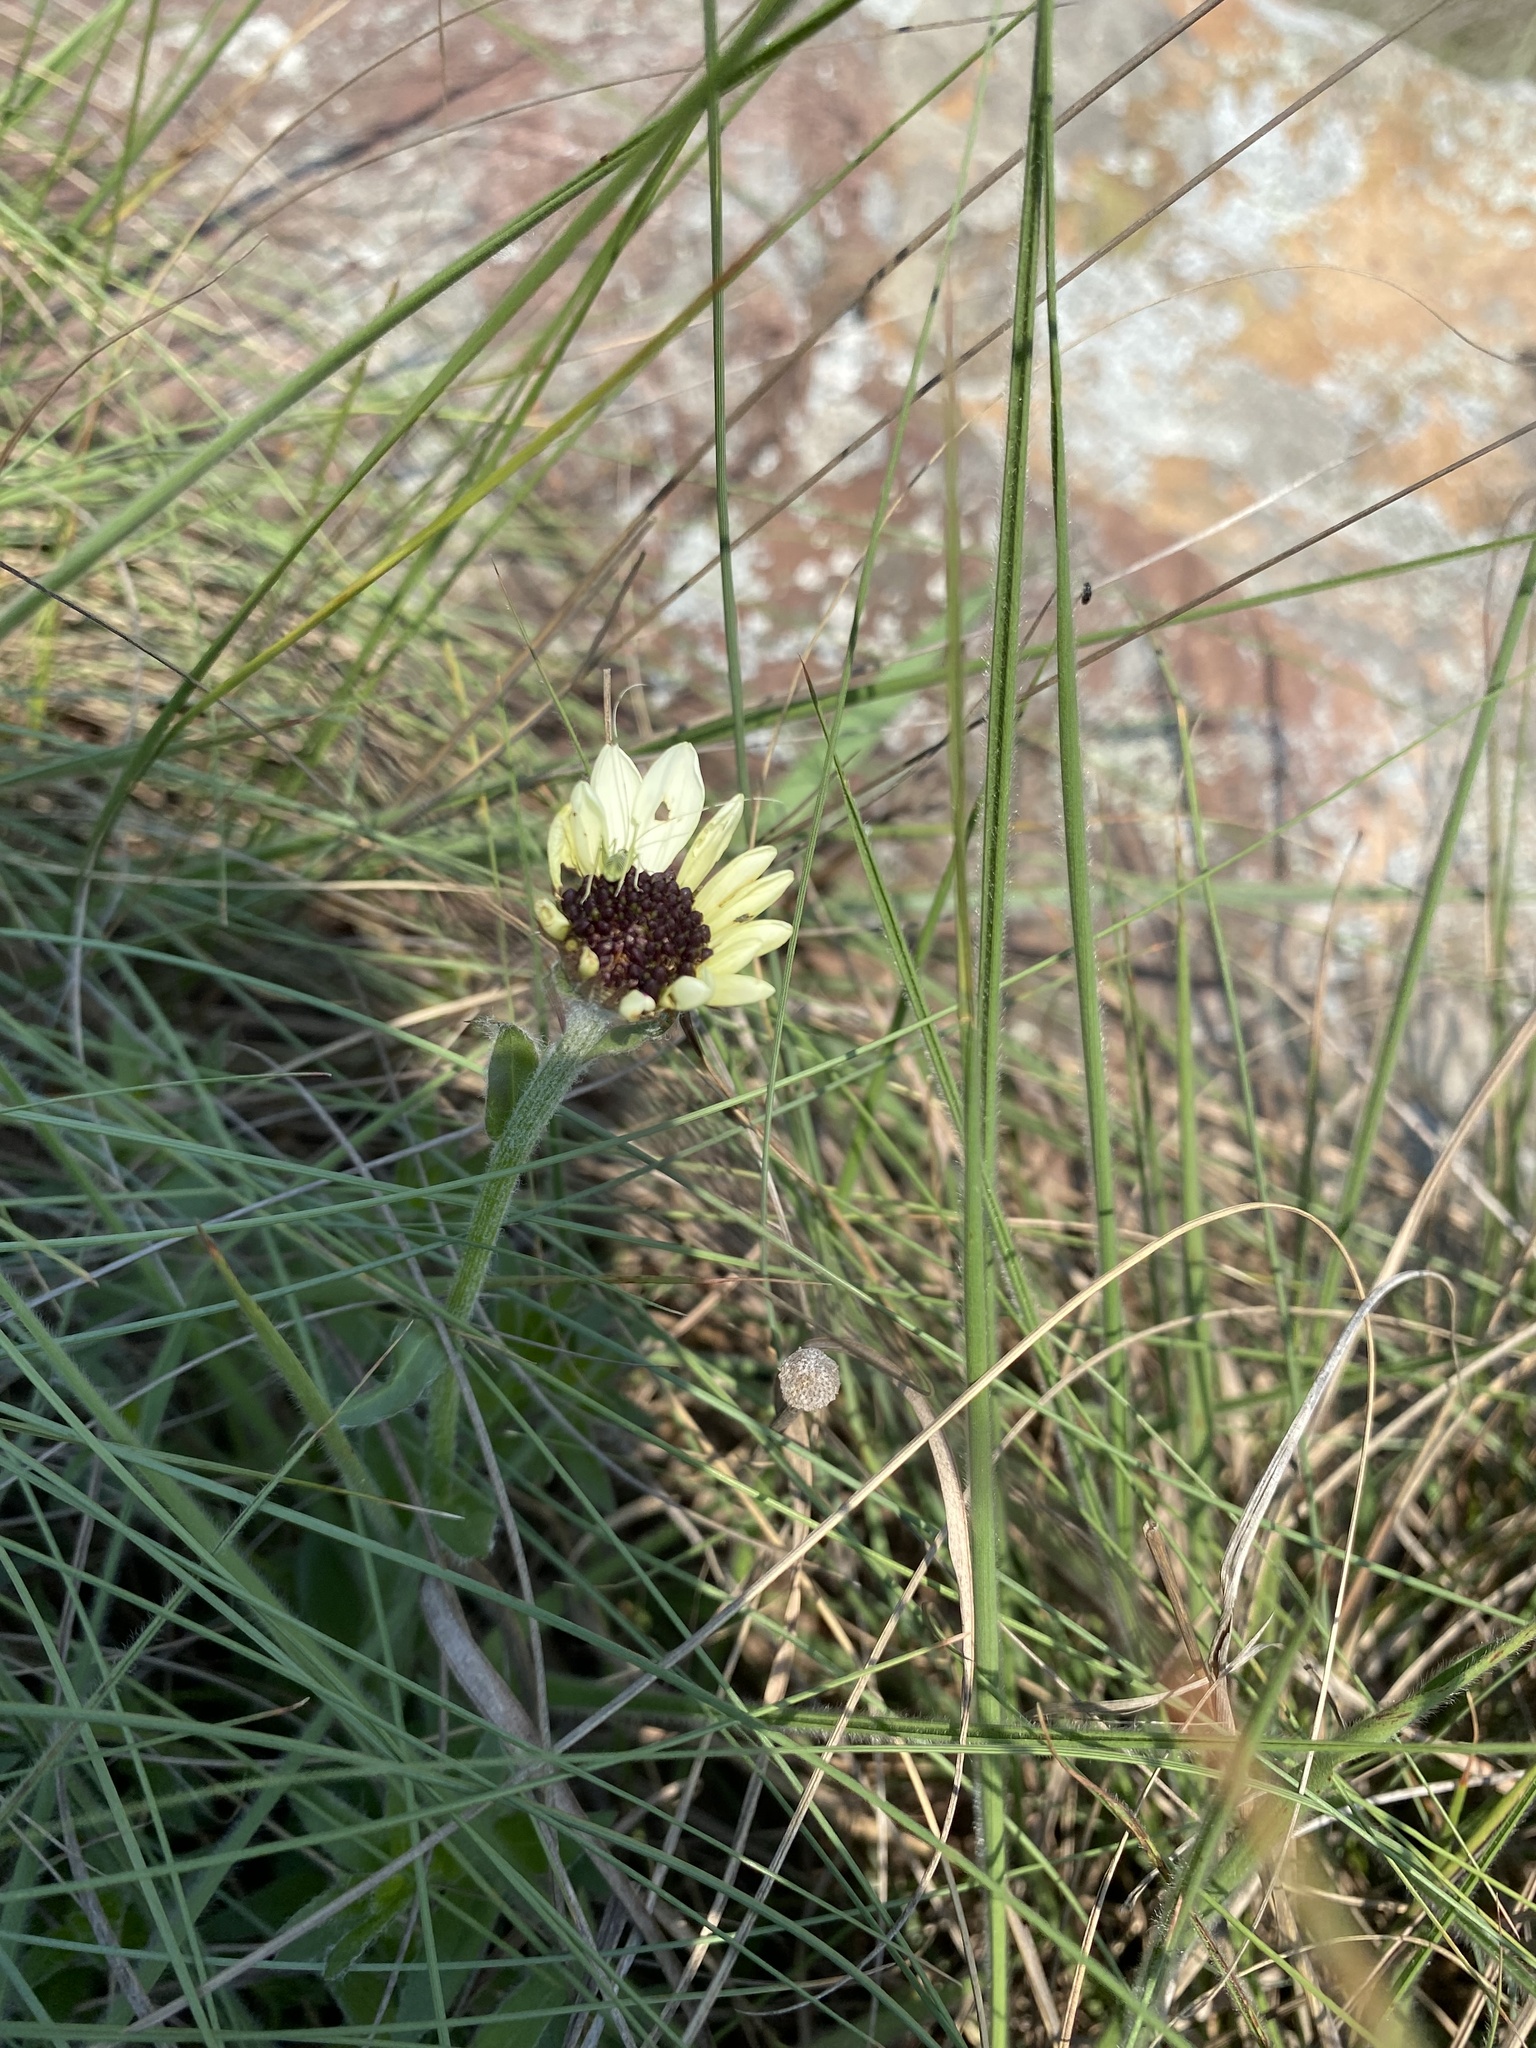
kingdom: Plantae
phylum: Tracheophyta
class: Magnoliopsida
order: Asterales
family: Asteraceae
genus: Callilepis
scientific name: Callilepis laureola
